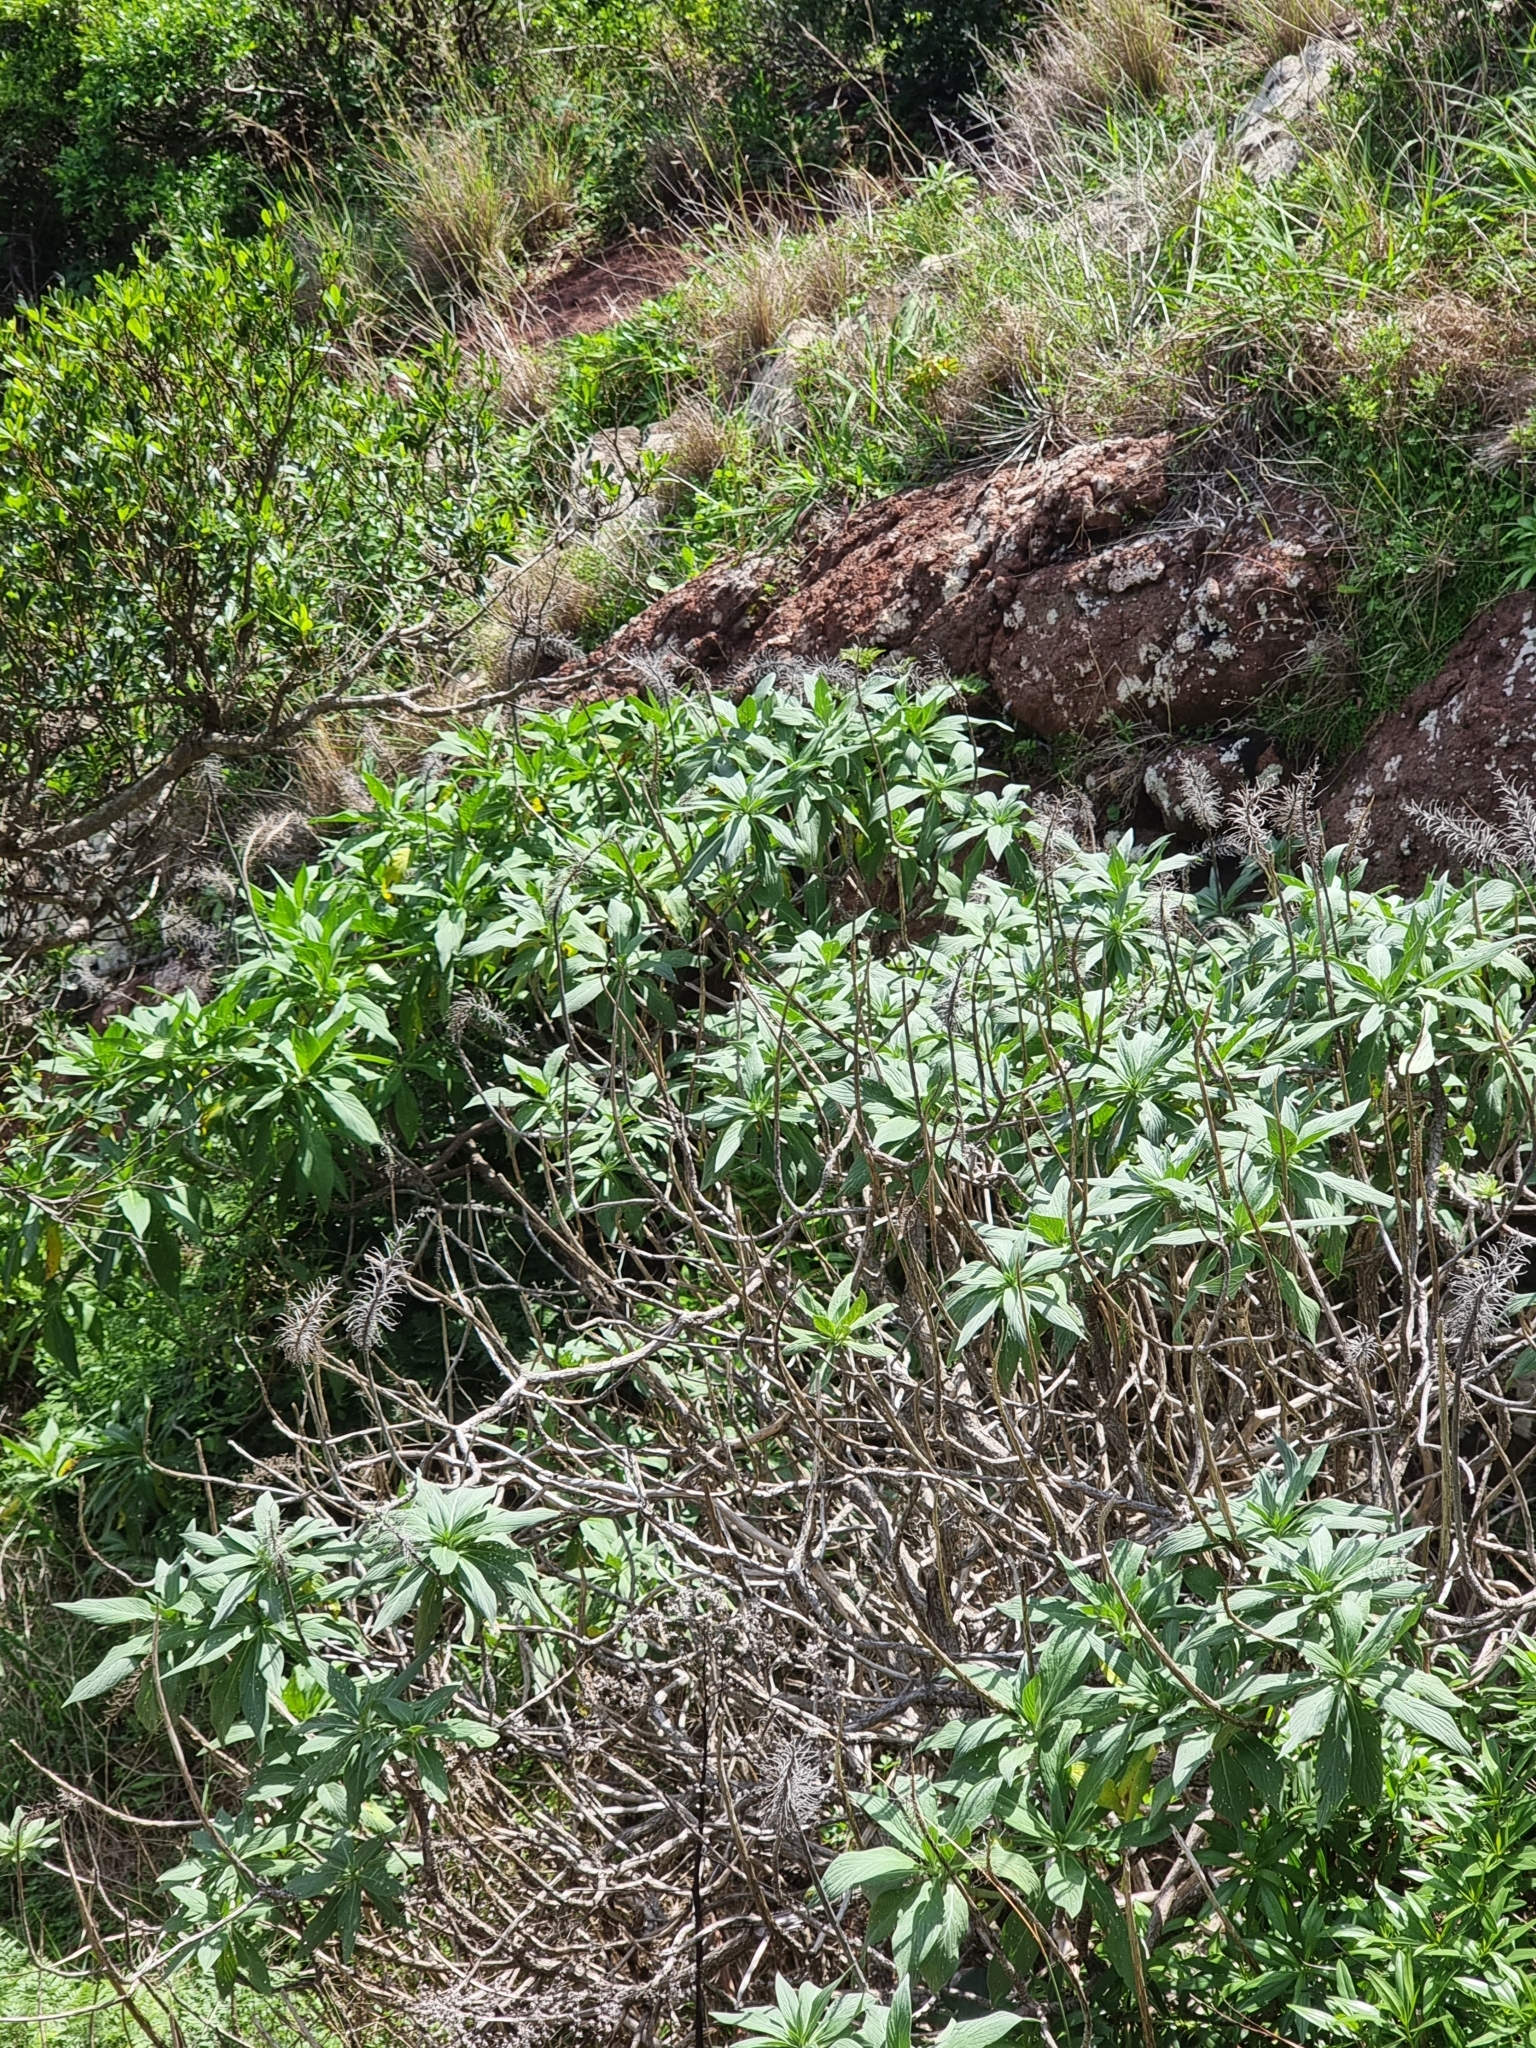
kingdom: Plantae
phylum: Tracheophyta
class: Magnoliopsida
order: Boraginales
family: Boraginaceae
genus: Echium
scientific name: Echium nervosum
